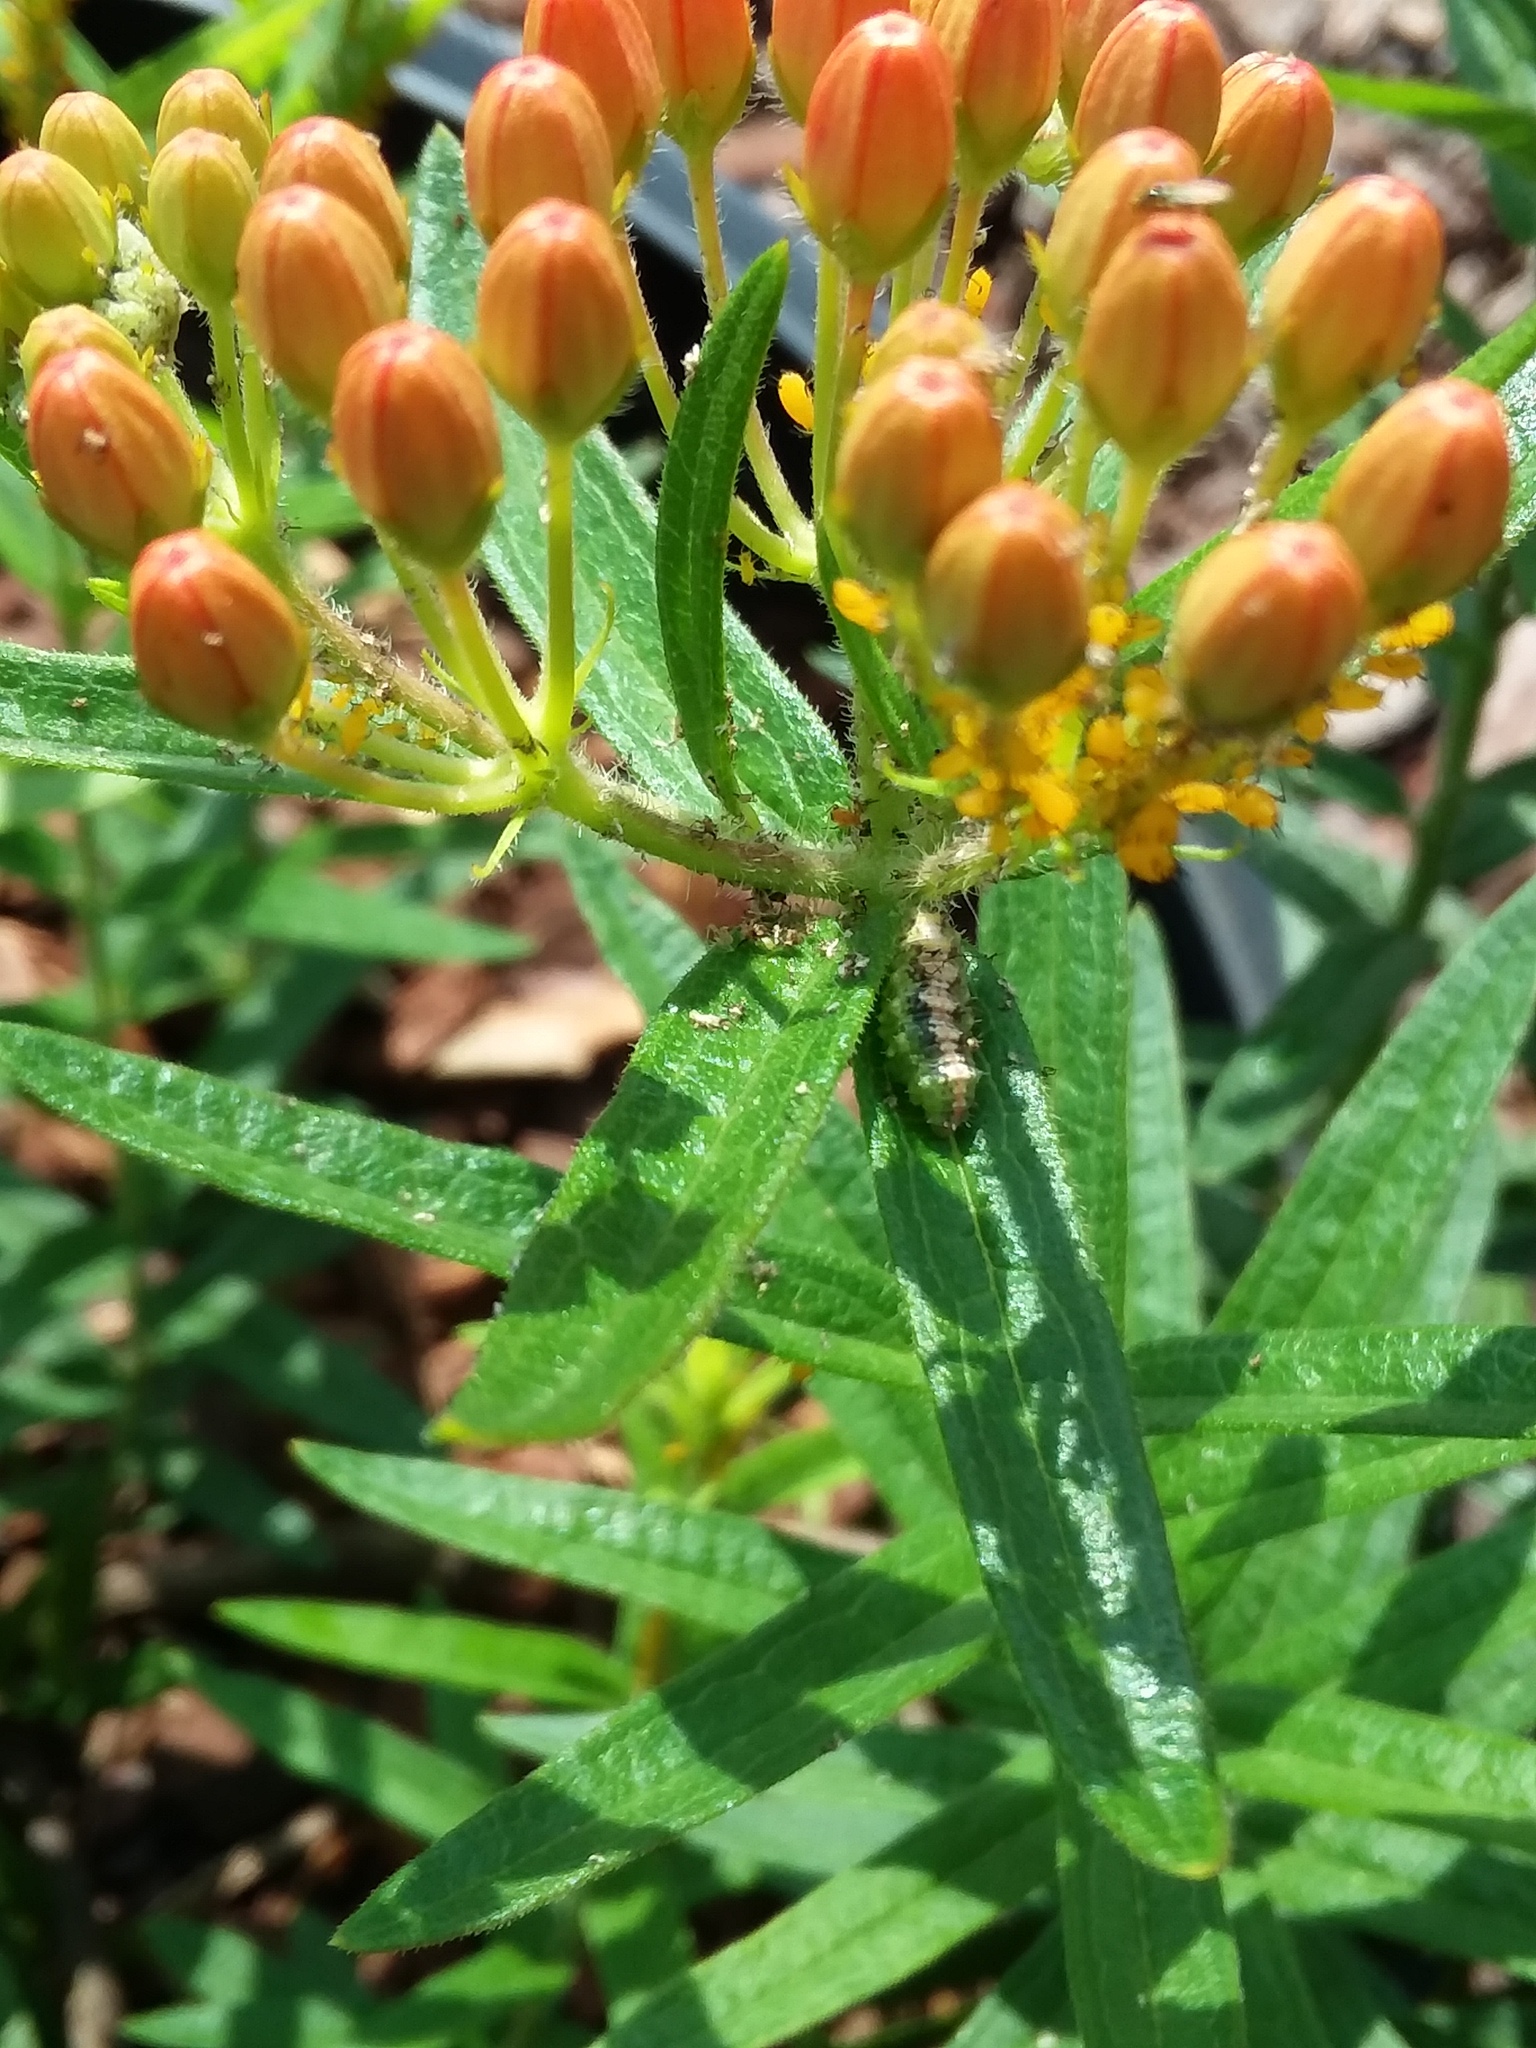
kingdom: Animalia
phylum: Arthropoda
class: Insecta
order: Diptera
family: Syrphidae
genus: Dioprosopa
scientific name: Dioprosopa clavatus
